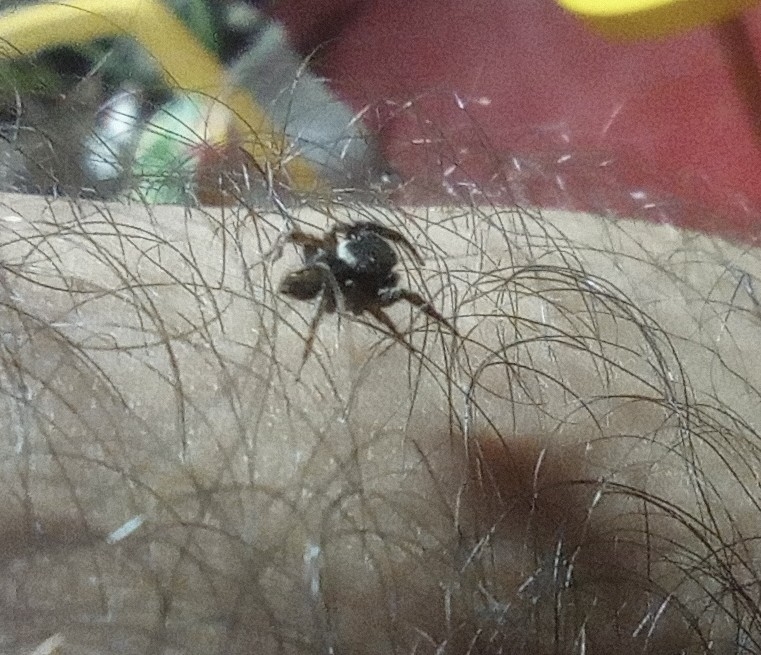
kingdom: Animalia
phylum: Arthropoda
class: Arachnida
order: Araneae
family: Salticidae
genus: Hasarius
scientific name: Hasarius adansoni
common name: Jumping spider
